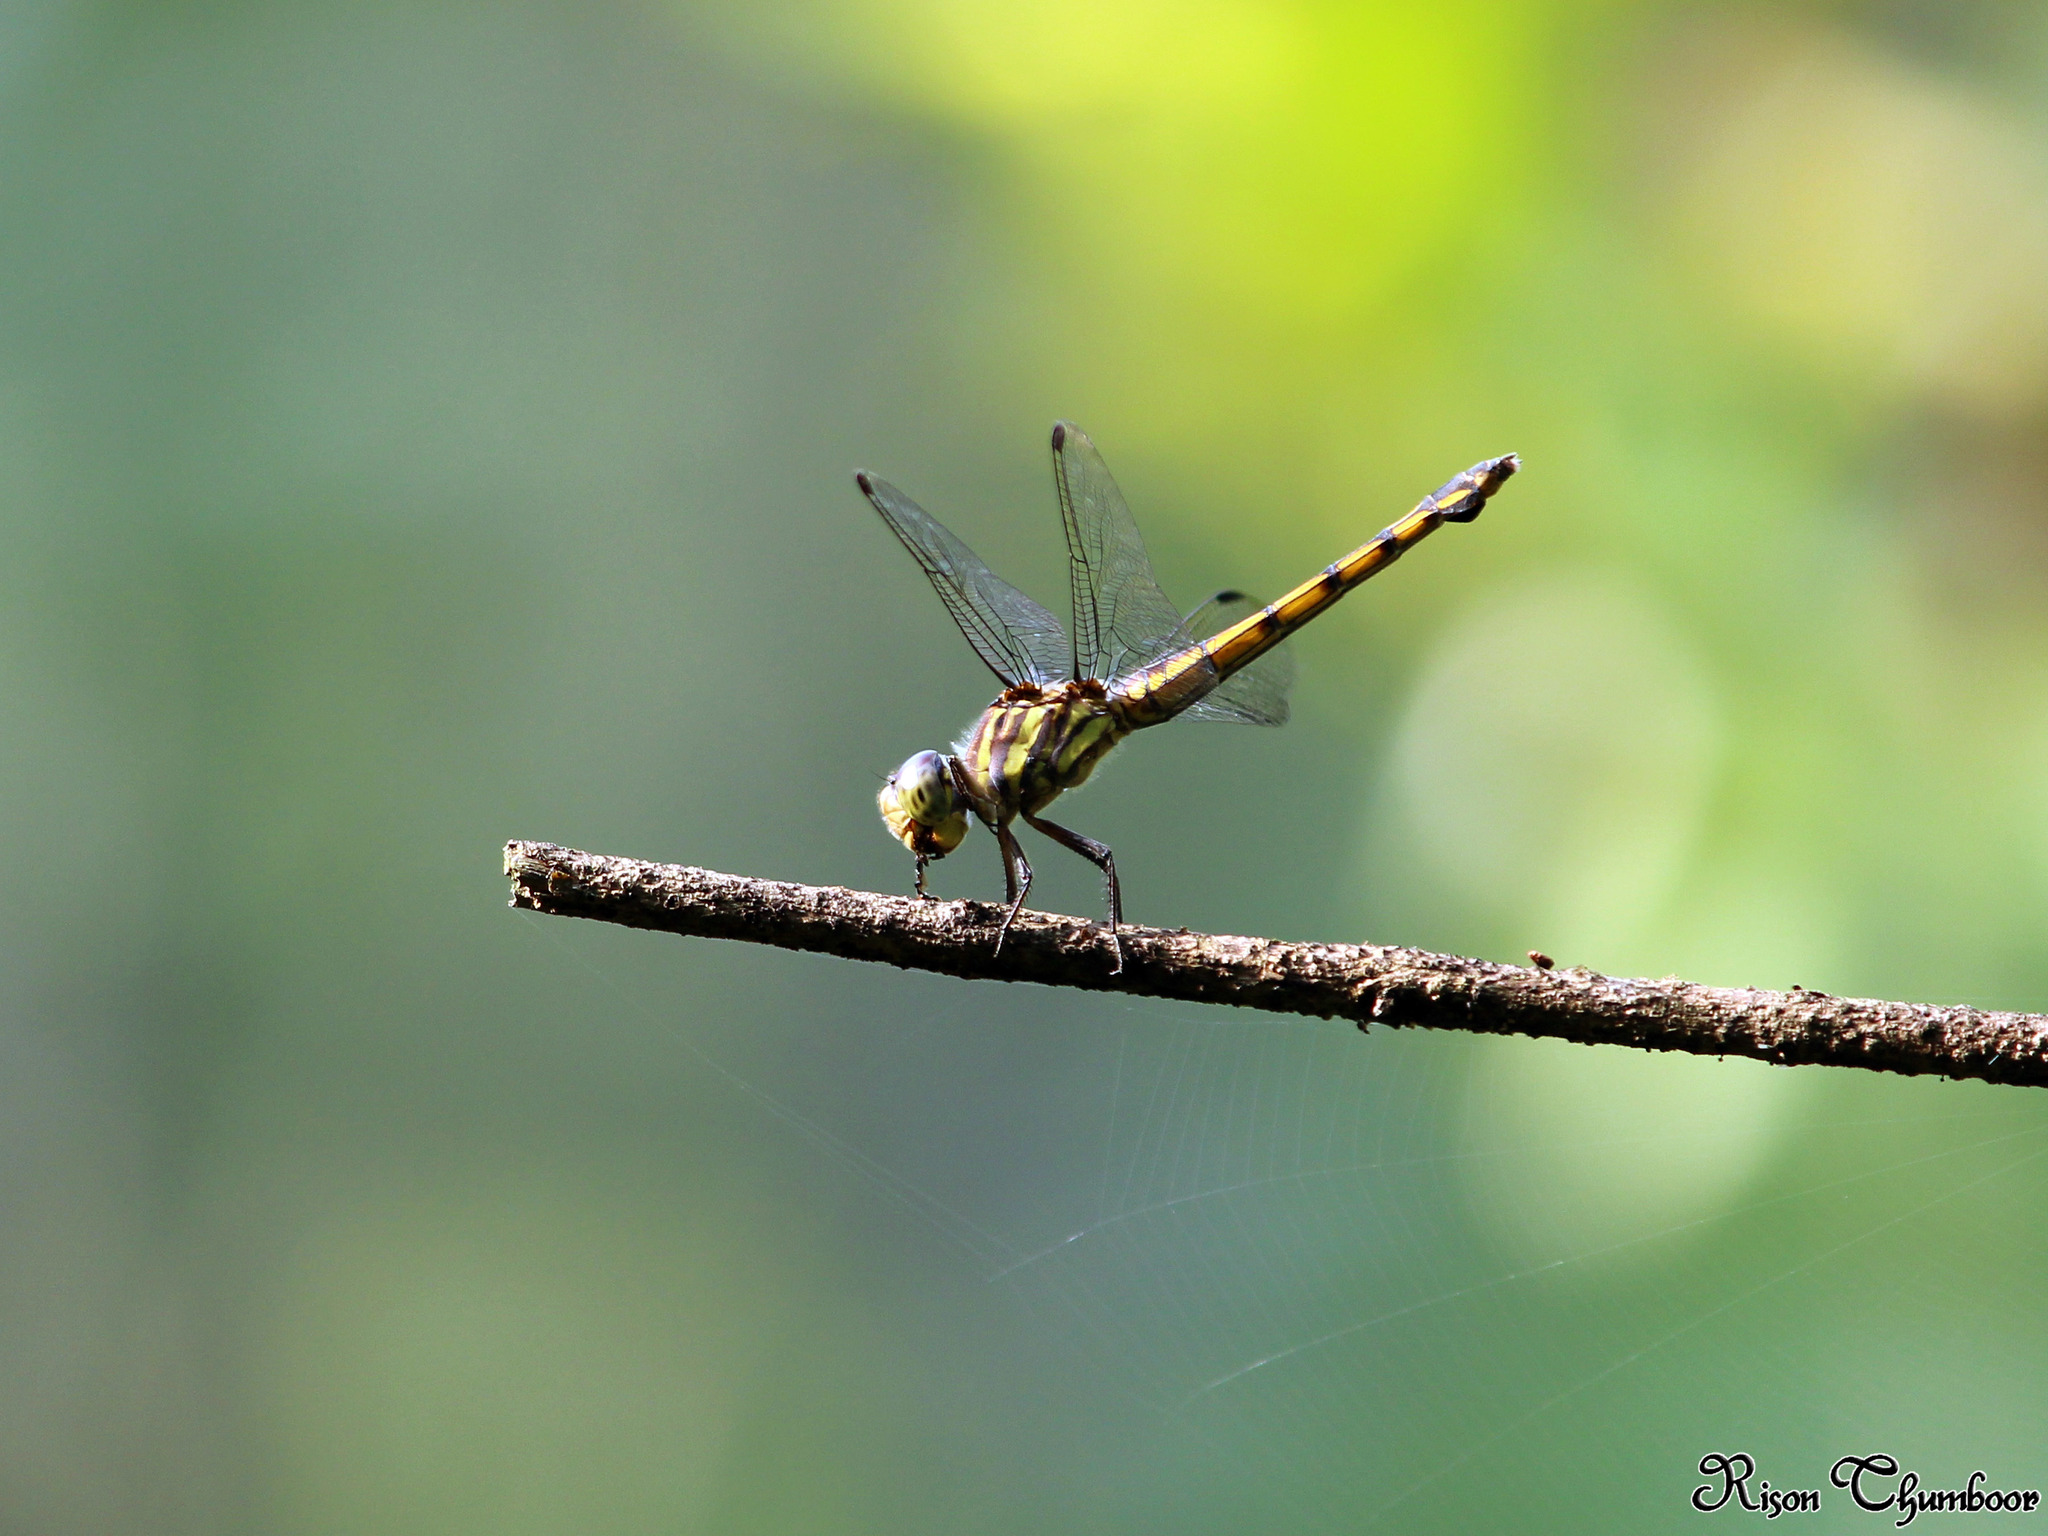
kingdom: Animalia
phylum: Arthropoda
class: Insecta
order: Odonata
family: Libellulidae
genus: Potamarcha
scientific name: Potamarcha congener
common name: Blue chaser
